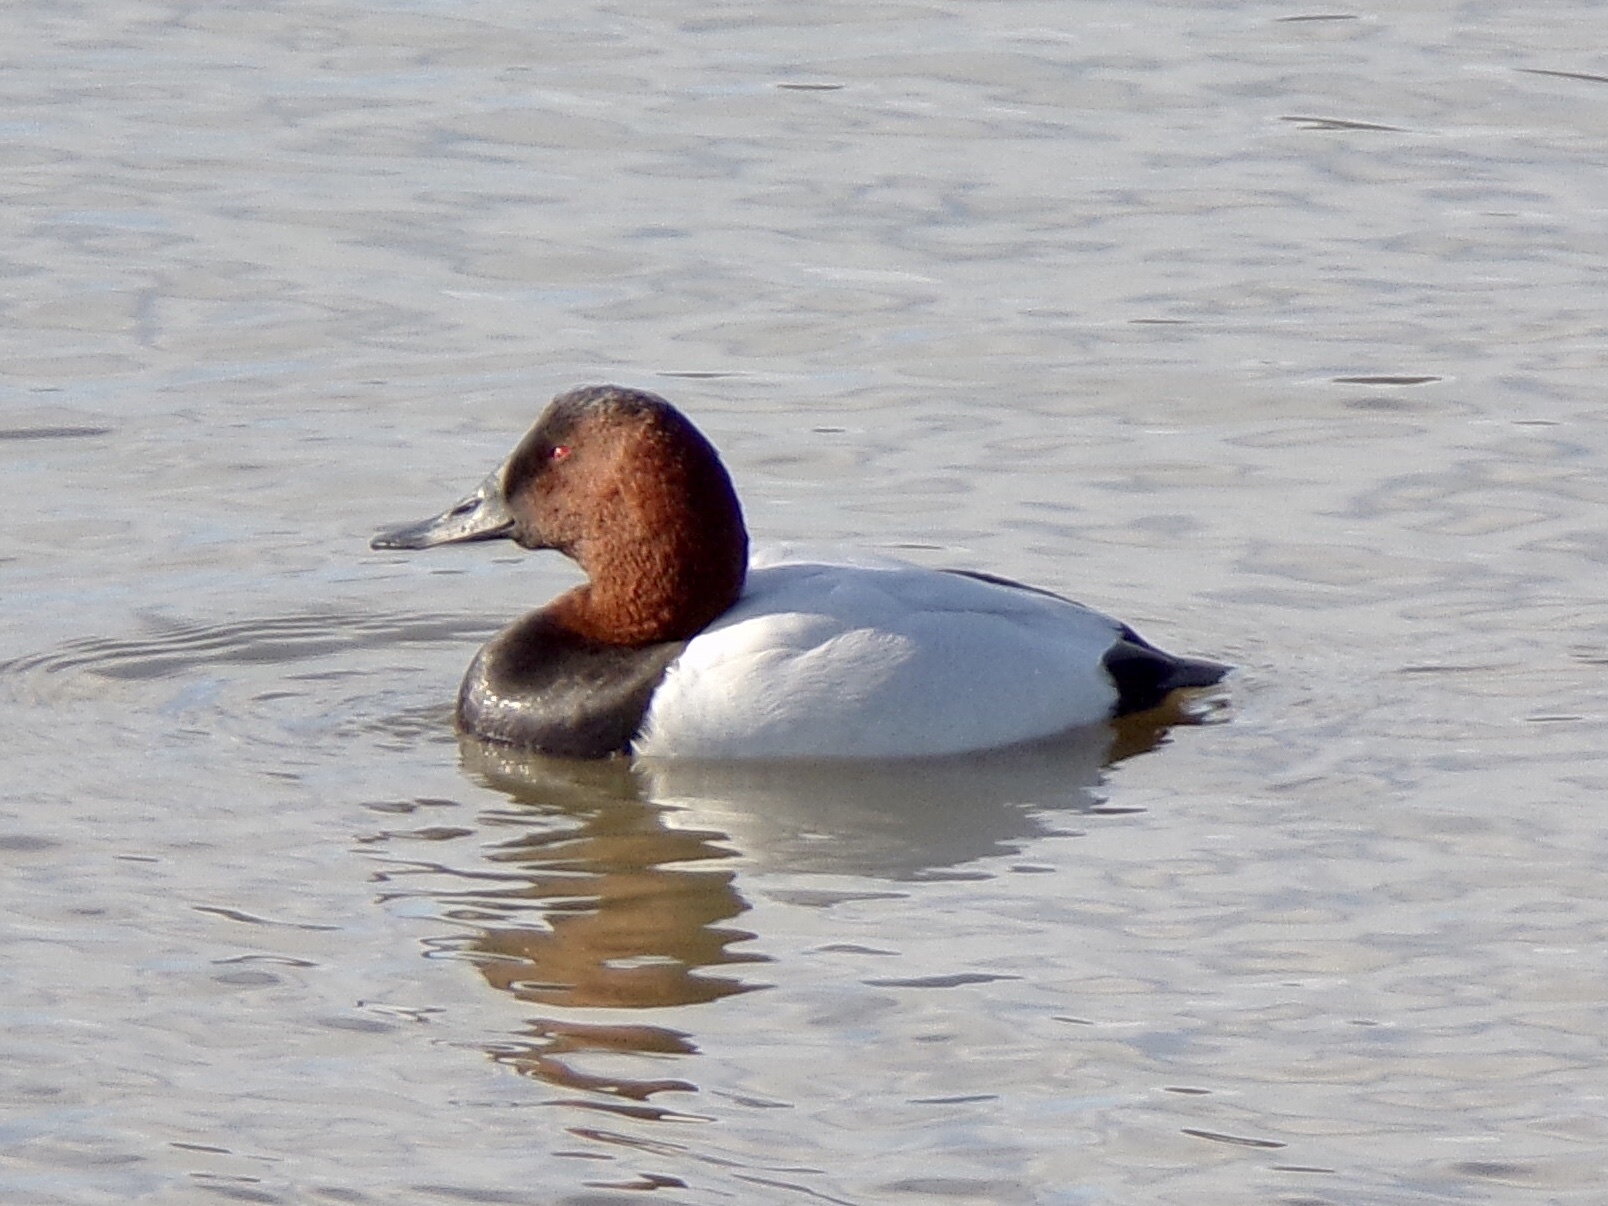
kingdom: Animalia
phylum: Chordata
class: Aves
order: Anseriformes
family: Anatidae
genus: Aythya
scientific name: Aythya valisineria
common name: Canvasback
